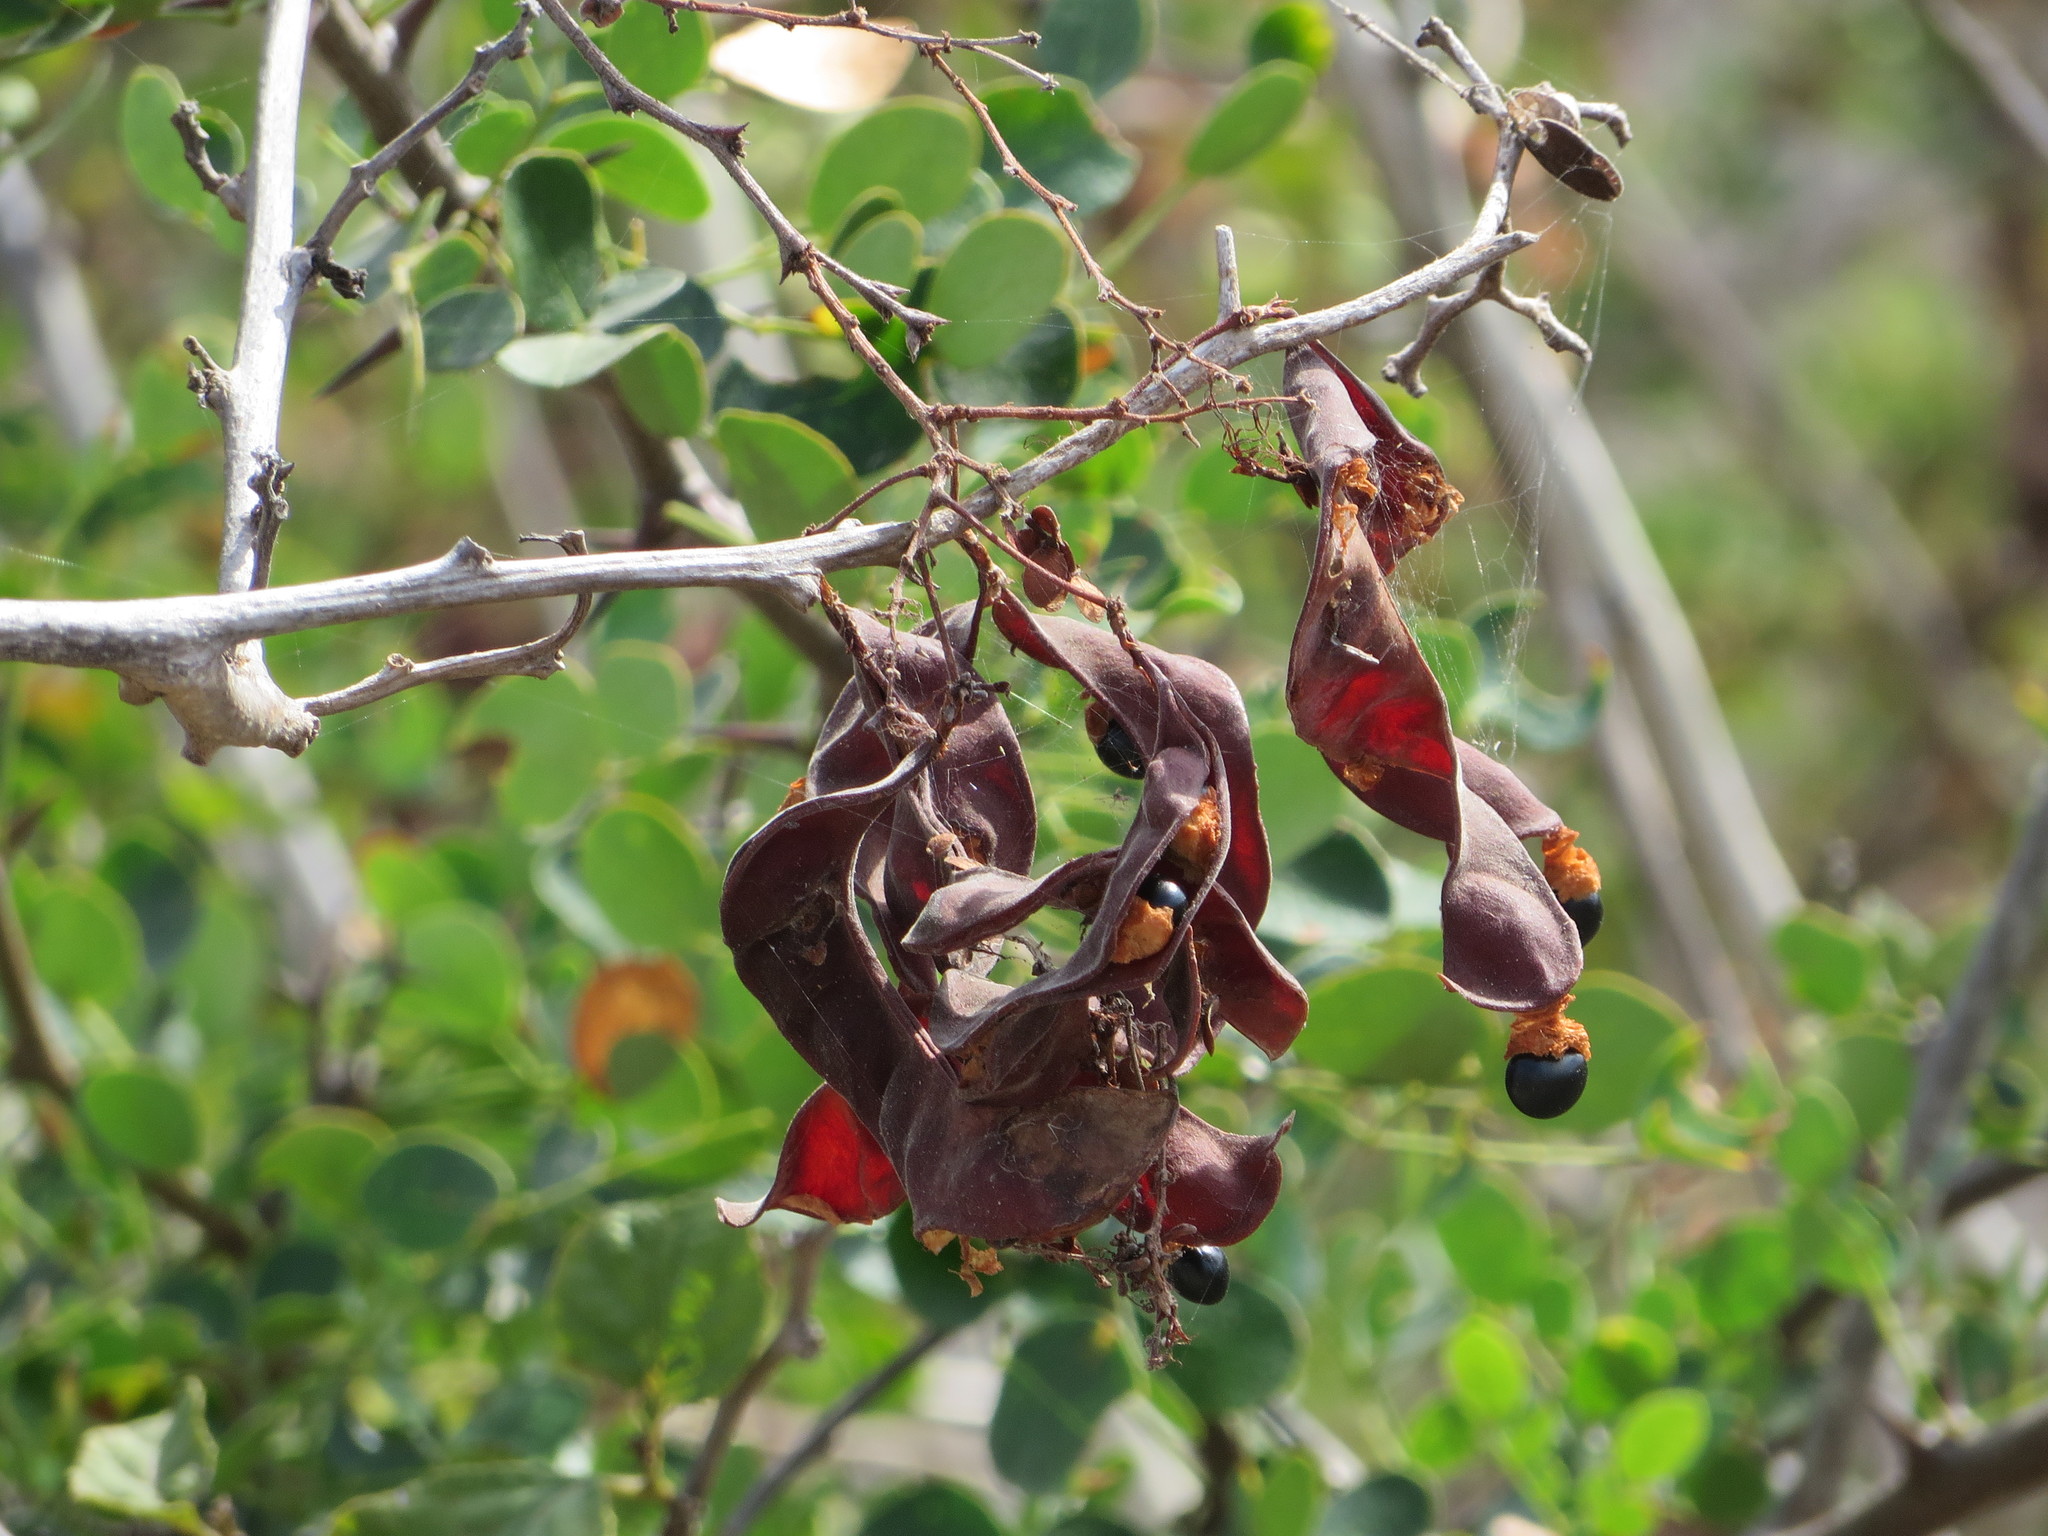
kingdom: Plantae
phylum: Tracheophyta
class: Magnoliopsida
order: Fabales
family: Fabaceae
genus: Pithecellobium
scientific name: Pithecellobium excelsum
